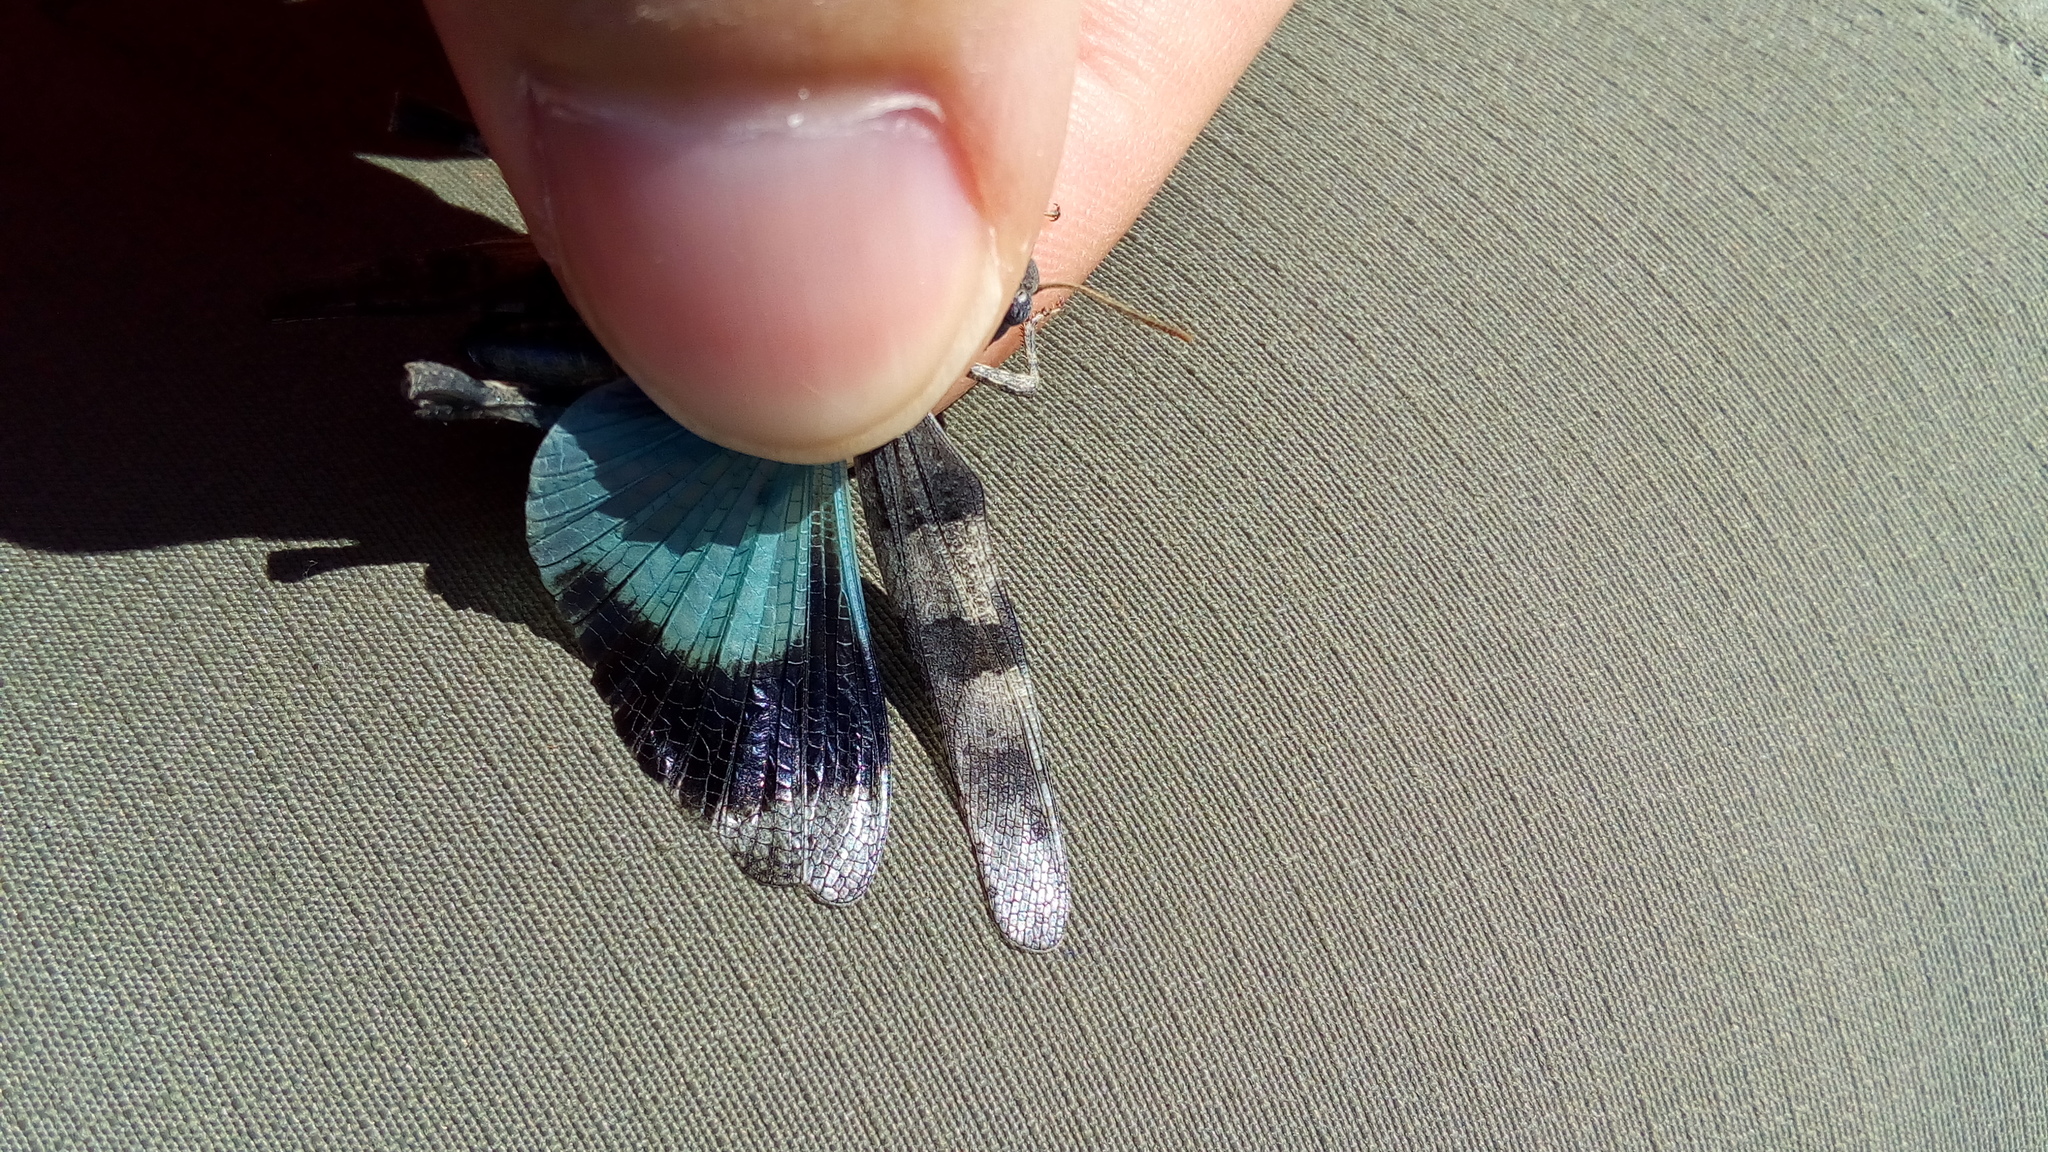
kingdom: Animalia
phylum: Arthropoda
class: Insecta
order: Orthoptera
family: Acrididae
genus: Oedipoda
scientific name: Oedipoda caerulescens
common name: Blue-winged grasshopper
